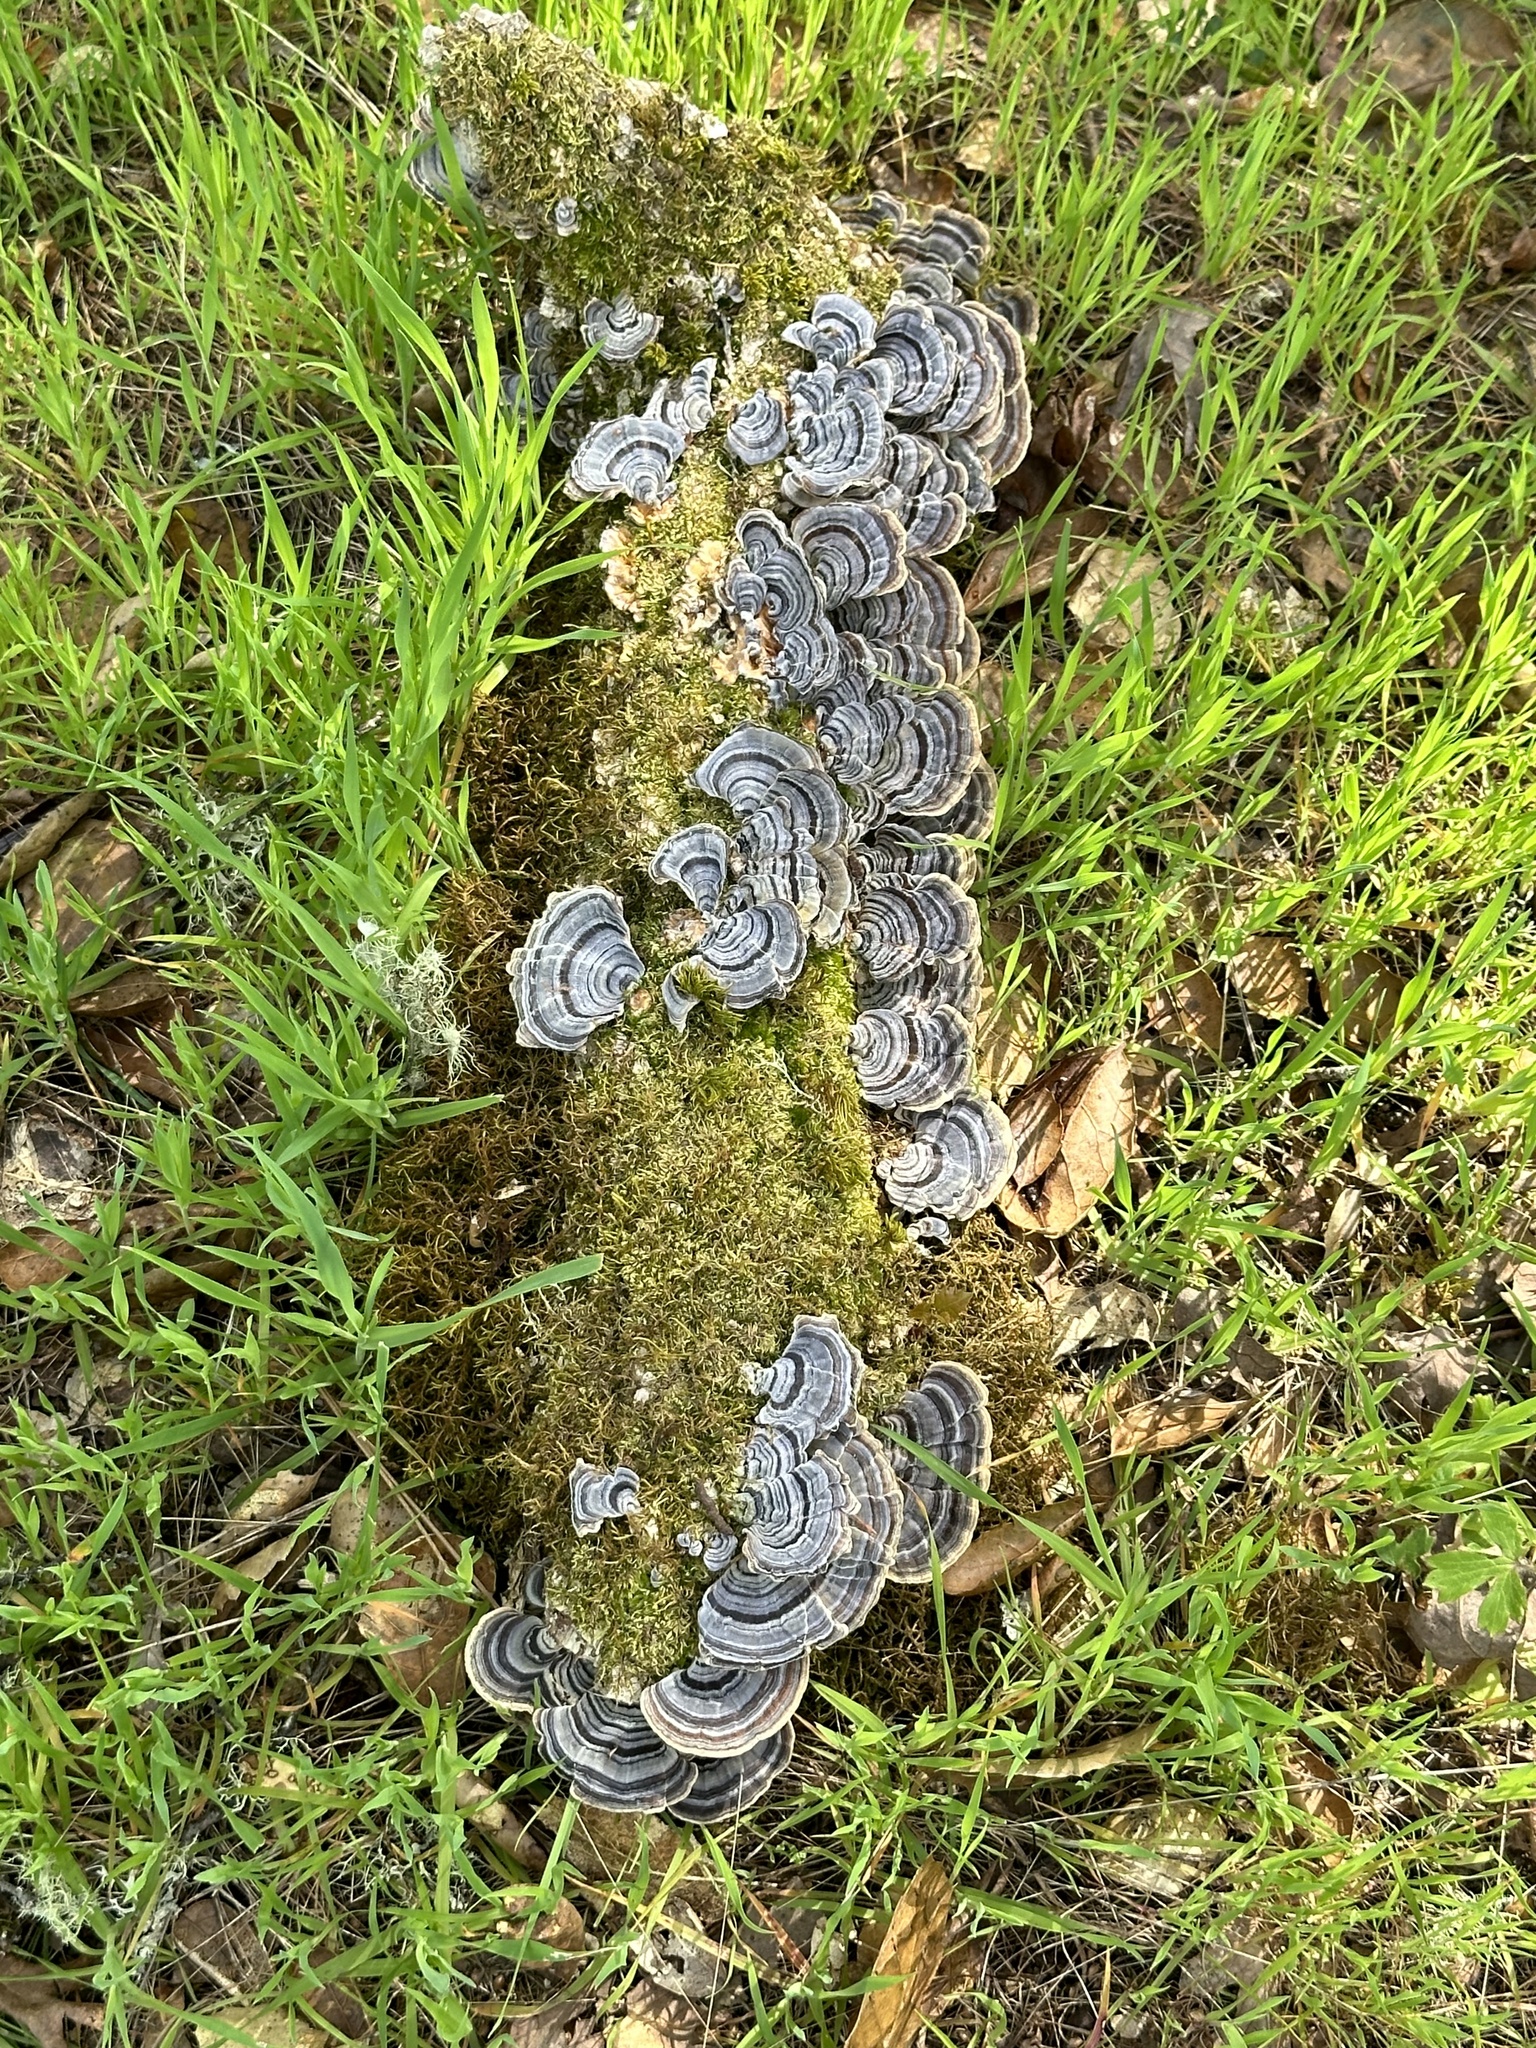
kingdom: Fungi
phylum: Basidiomycota
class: Agaricomycetes
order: Polyporales
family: Polyporaceae
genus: Trametes
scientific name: Trametes versicolor
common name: Turkeytail
